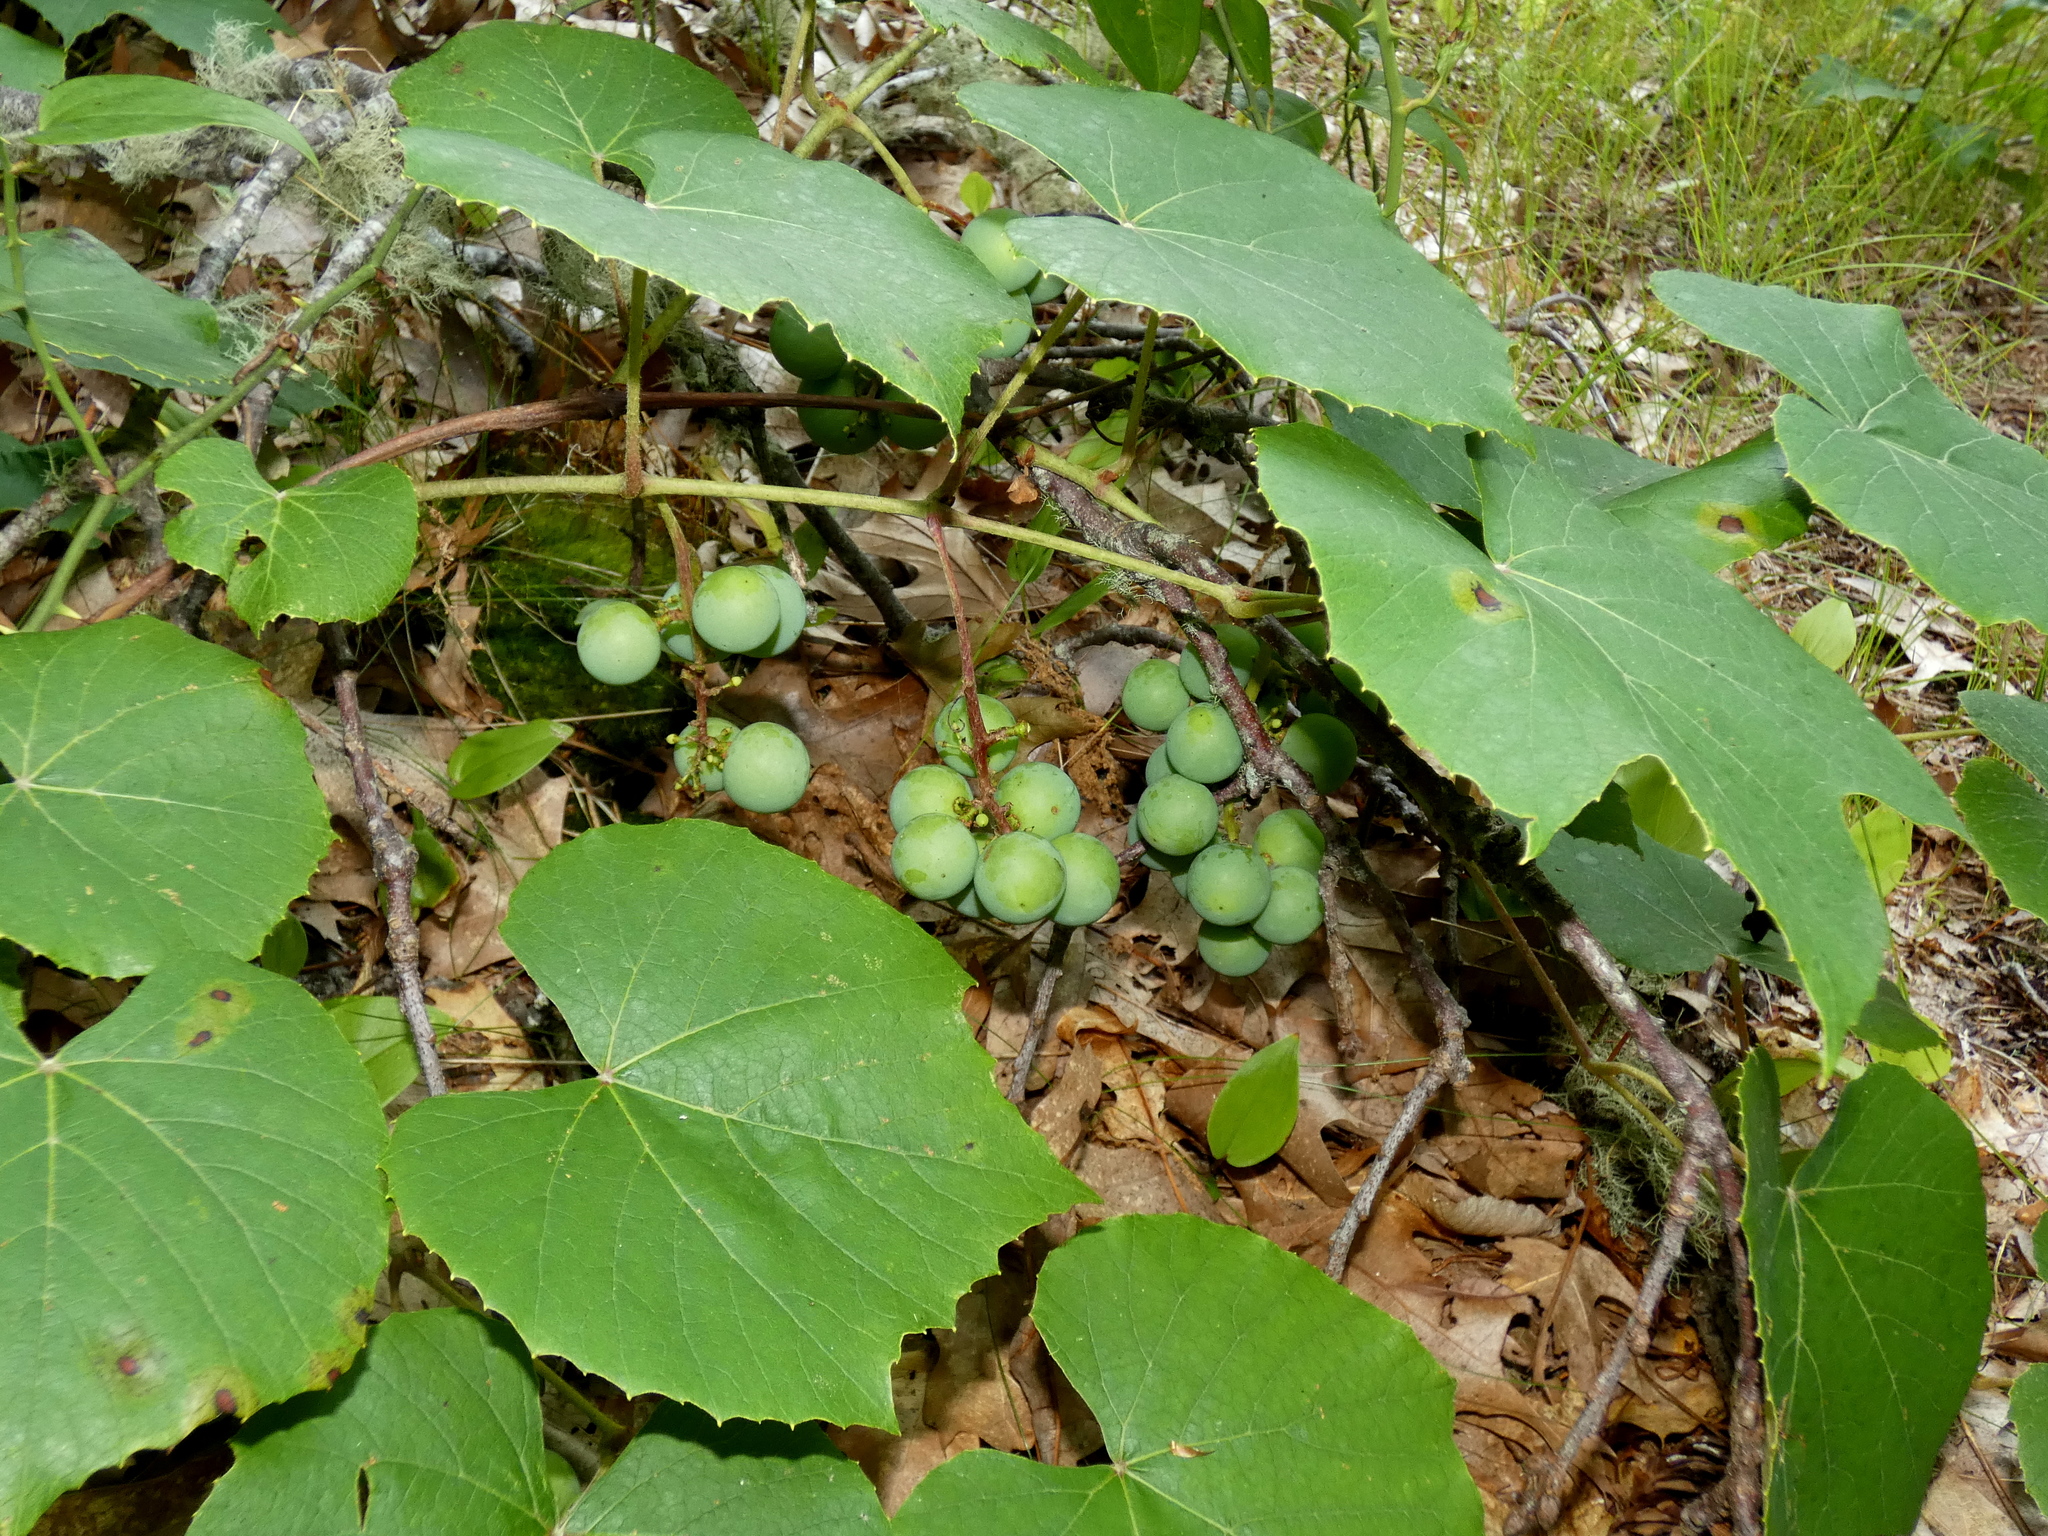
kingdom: Plantae
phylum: Tracheophyta
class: Magnoliopsida
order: Vitales
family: Vitaceae
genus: Vitis
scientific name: Vitis labrusca
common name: Concord grape
